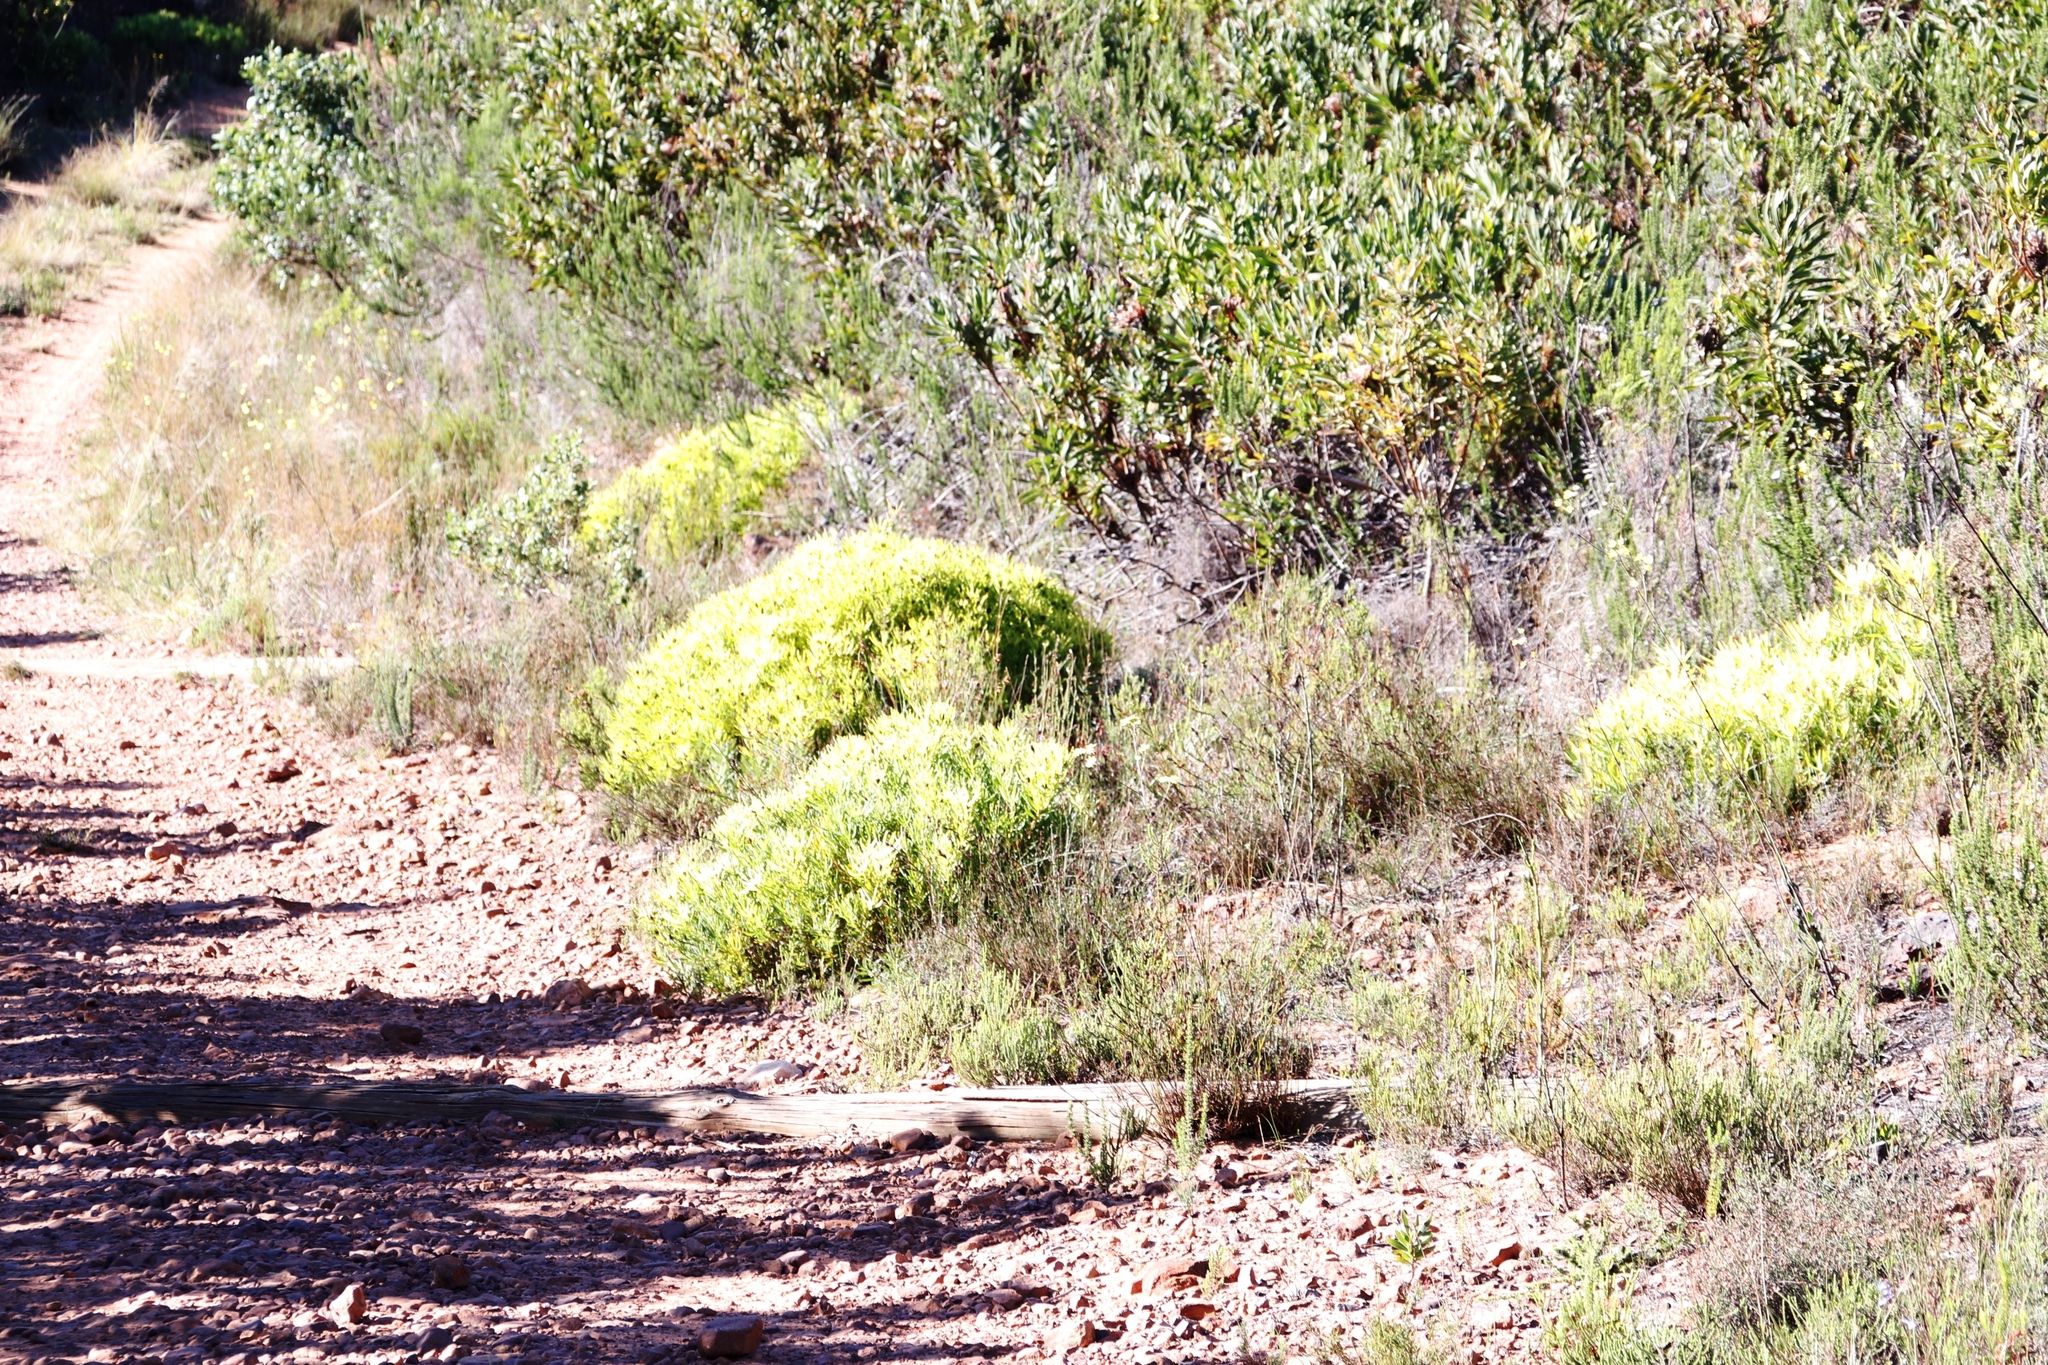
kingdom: Plantae
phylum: Tracheophyta
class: Magnoliopsida
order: Proteales
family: Proteaceae
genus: Leucadendron
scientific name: Leucadendron salignum
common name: Common sunshine conebush
